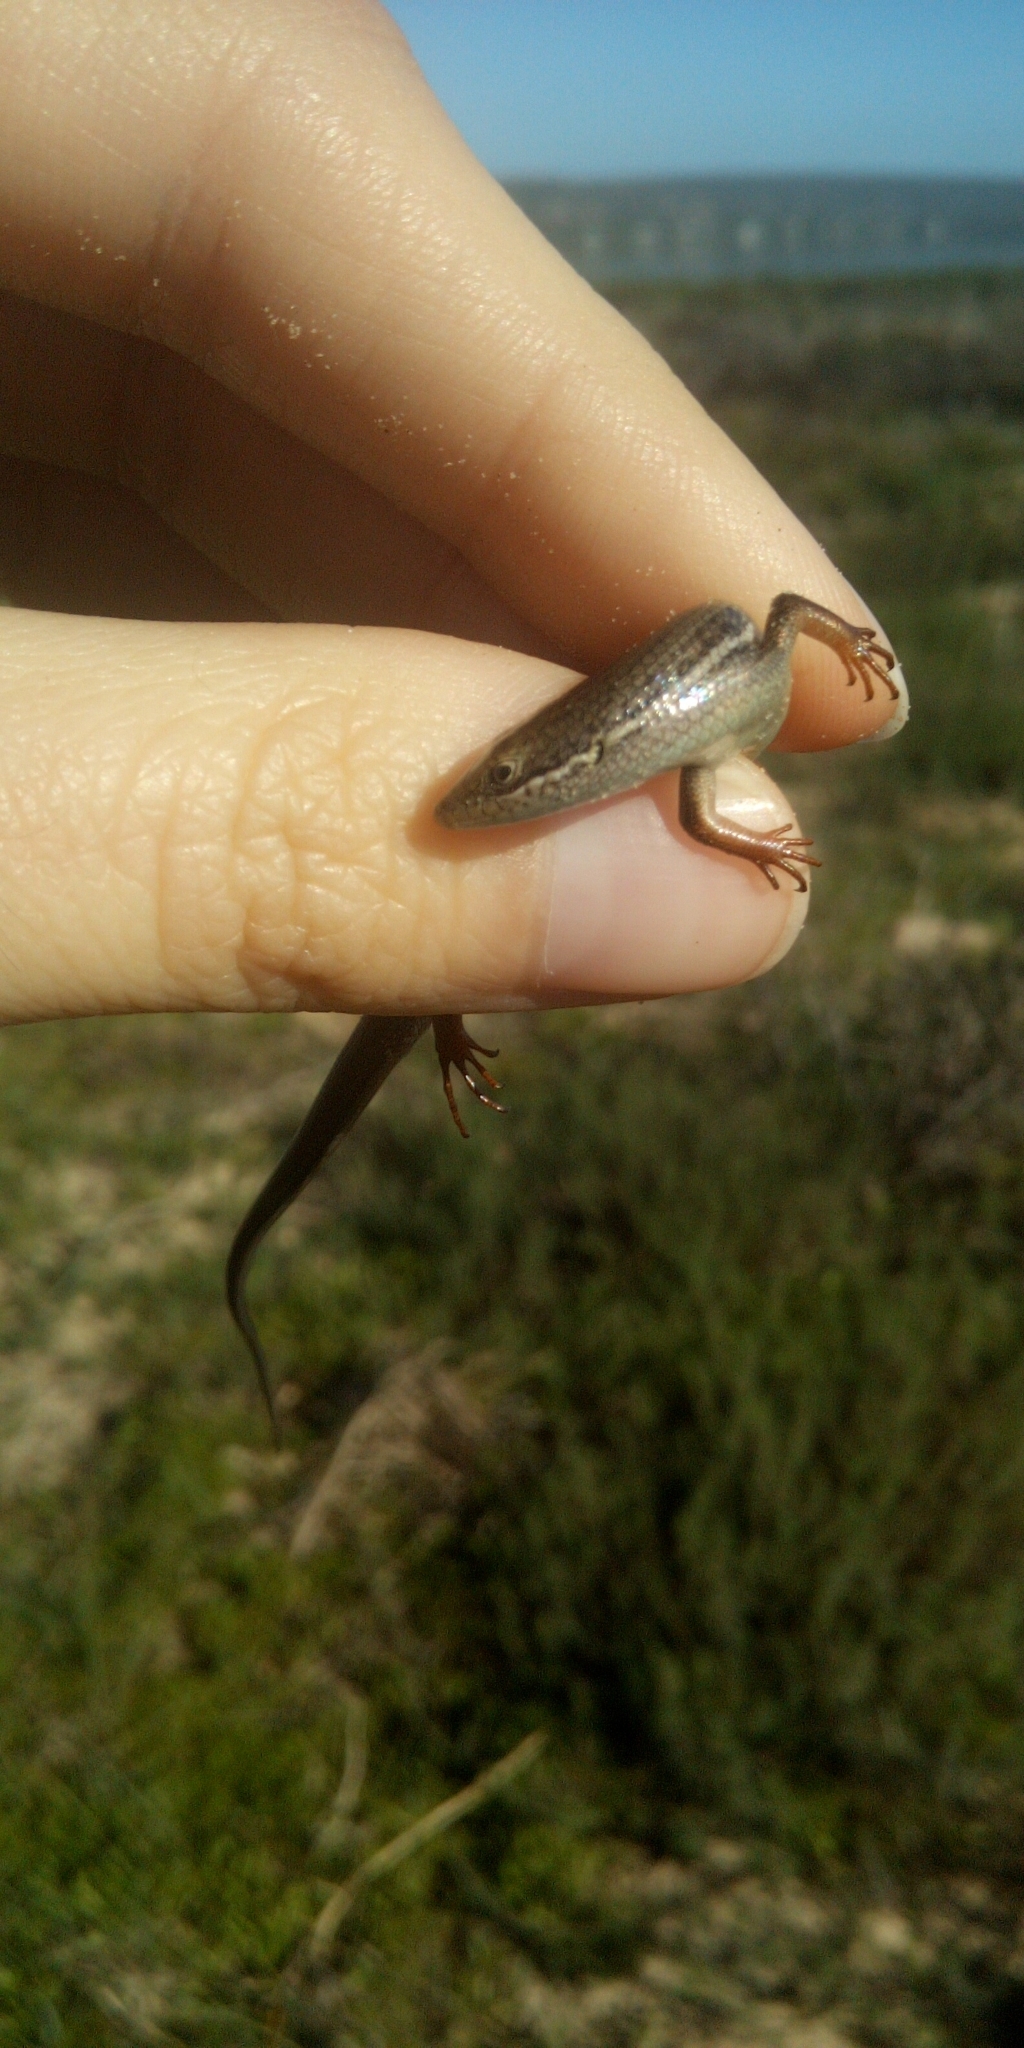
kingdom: Animalia
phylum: Chordata
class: Squamata
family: Scincidae
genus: Trachylepis
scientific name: Trachylepis homalocephala
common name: Red-sided skink
